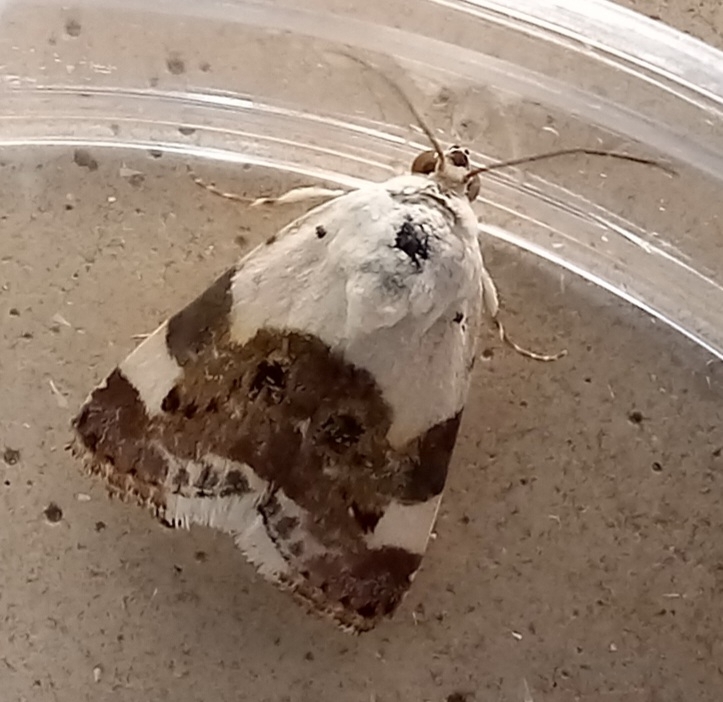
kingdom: Animalia
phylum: Arthropoda
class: Insecta
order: Lepidoptera
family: Noctuidae
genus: Acontia
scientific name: Acontia lucida
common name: Pale shoulder
